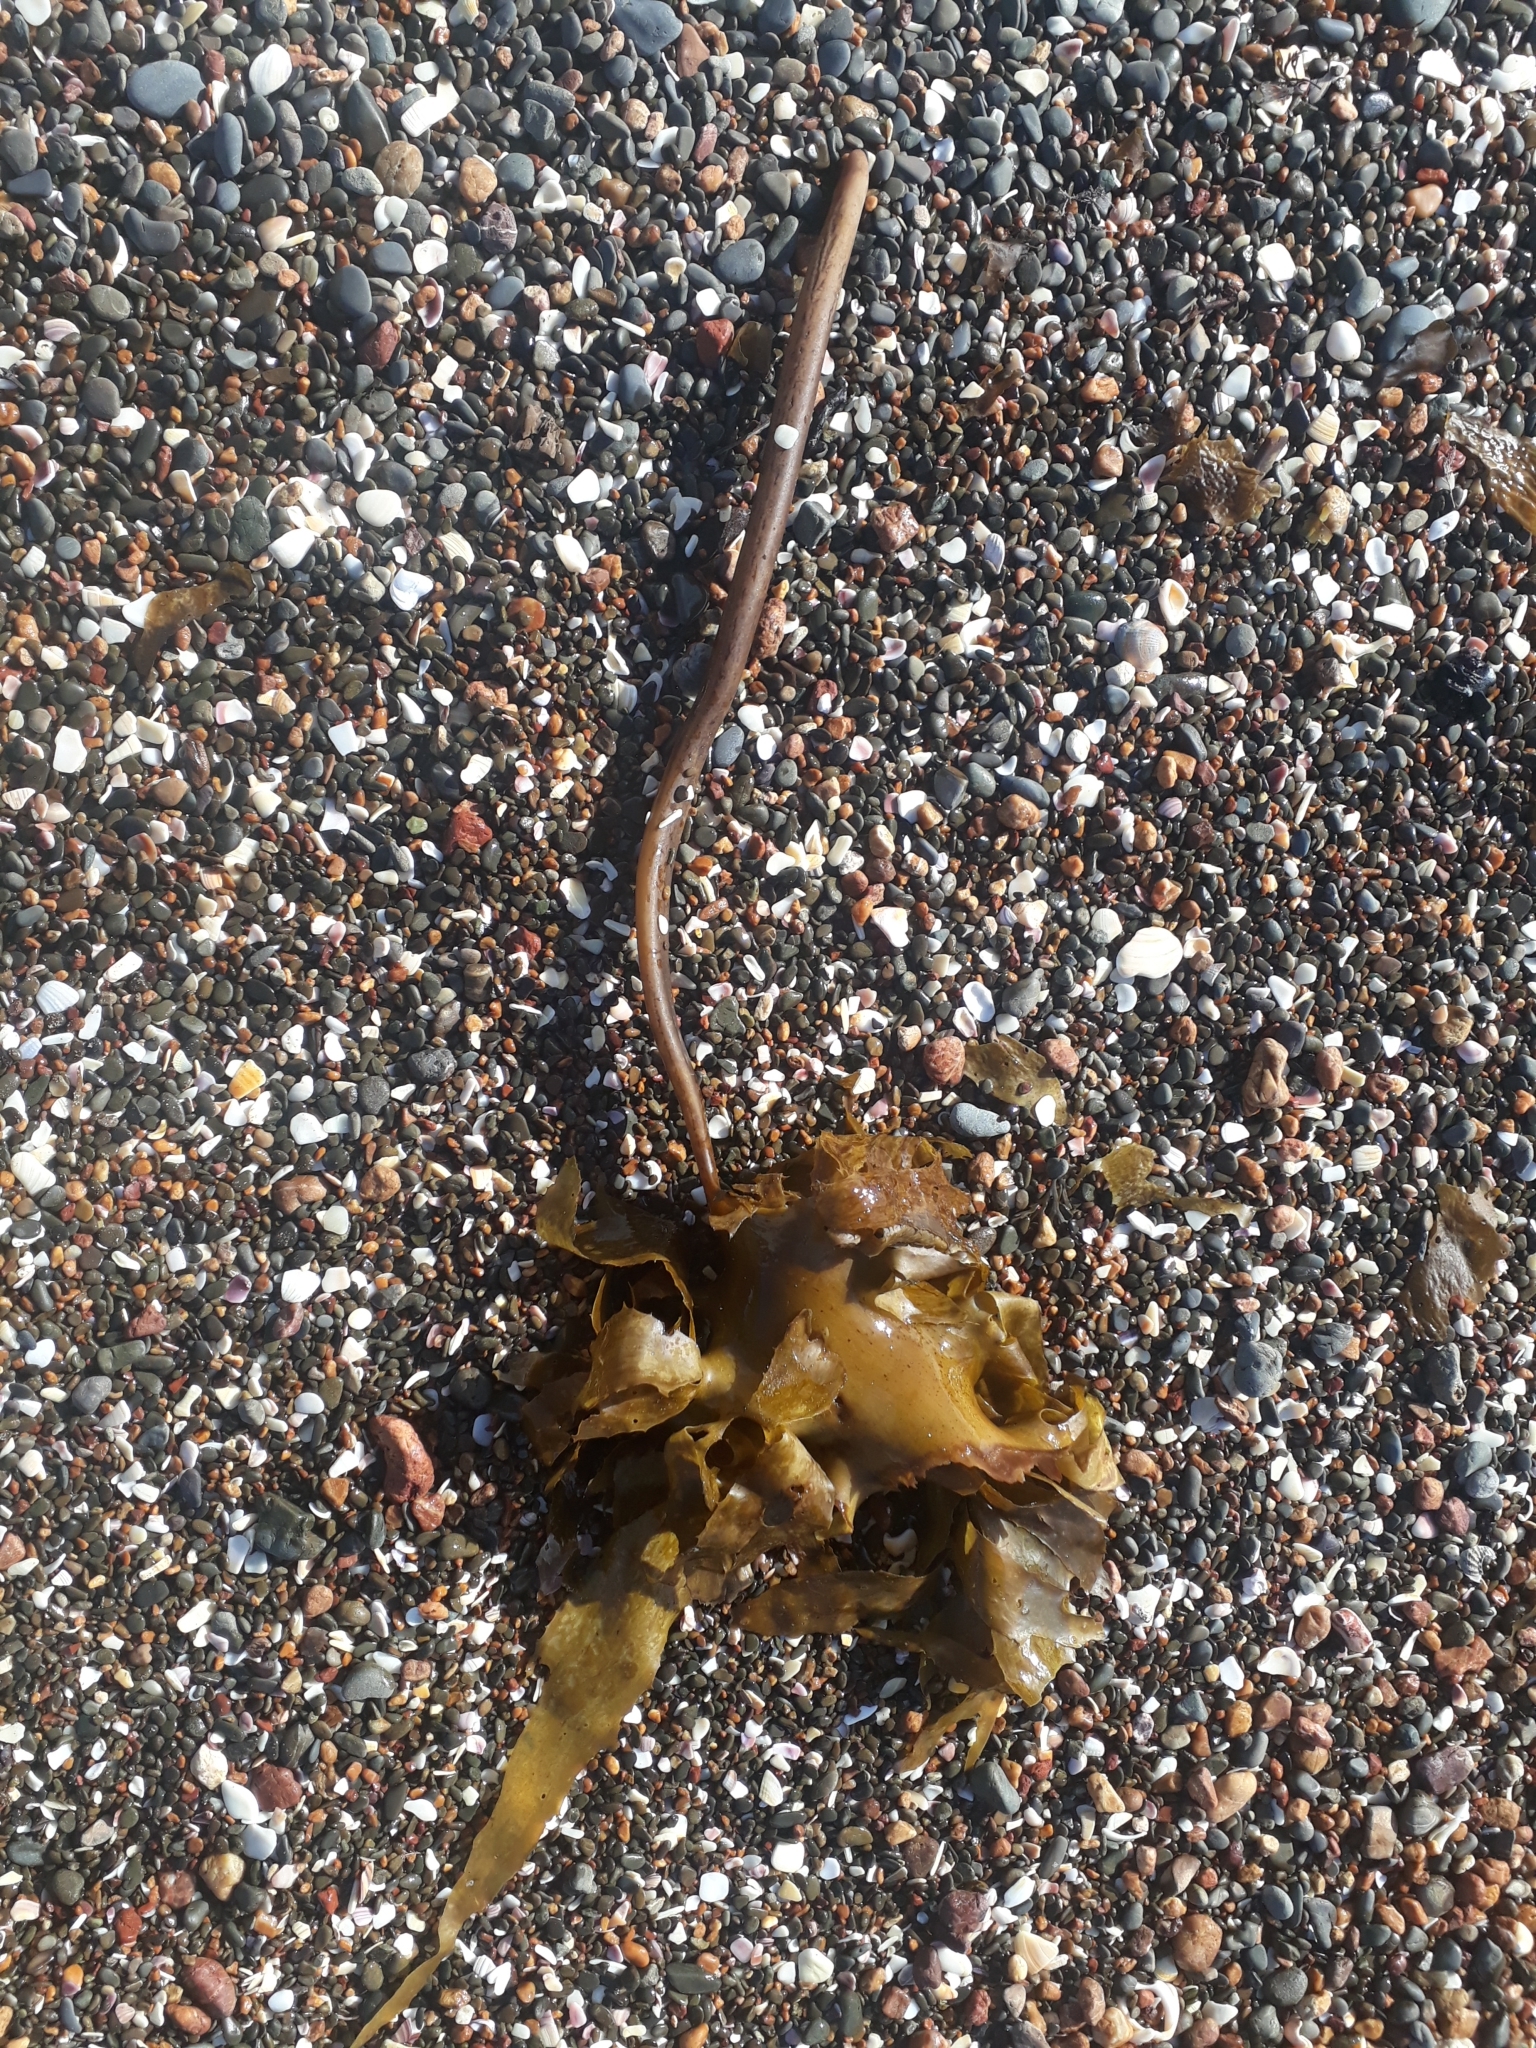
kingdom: Chromista
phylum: Ochrophyta
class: Phaeophyceae
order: Laminariales
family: Lessoniaceae
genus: Ecklonia
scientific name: Ecklonia radiata
